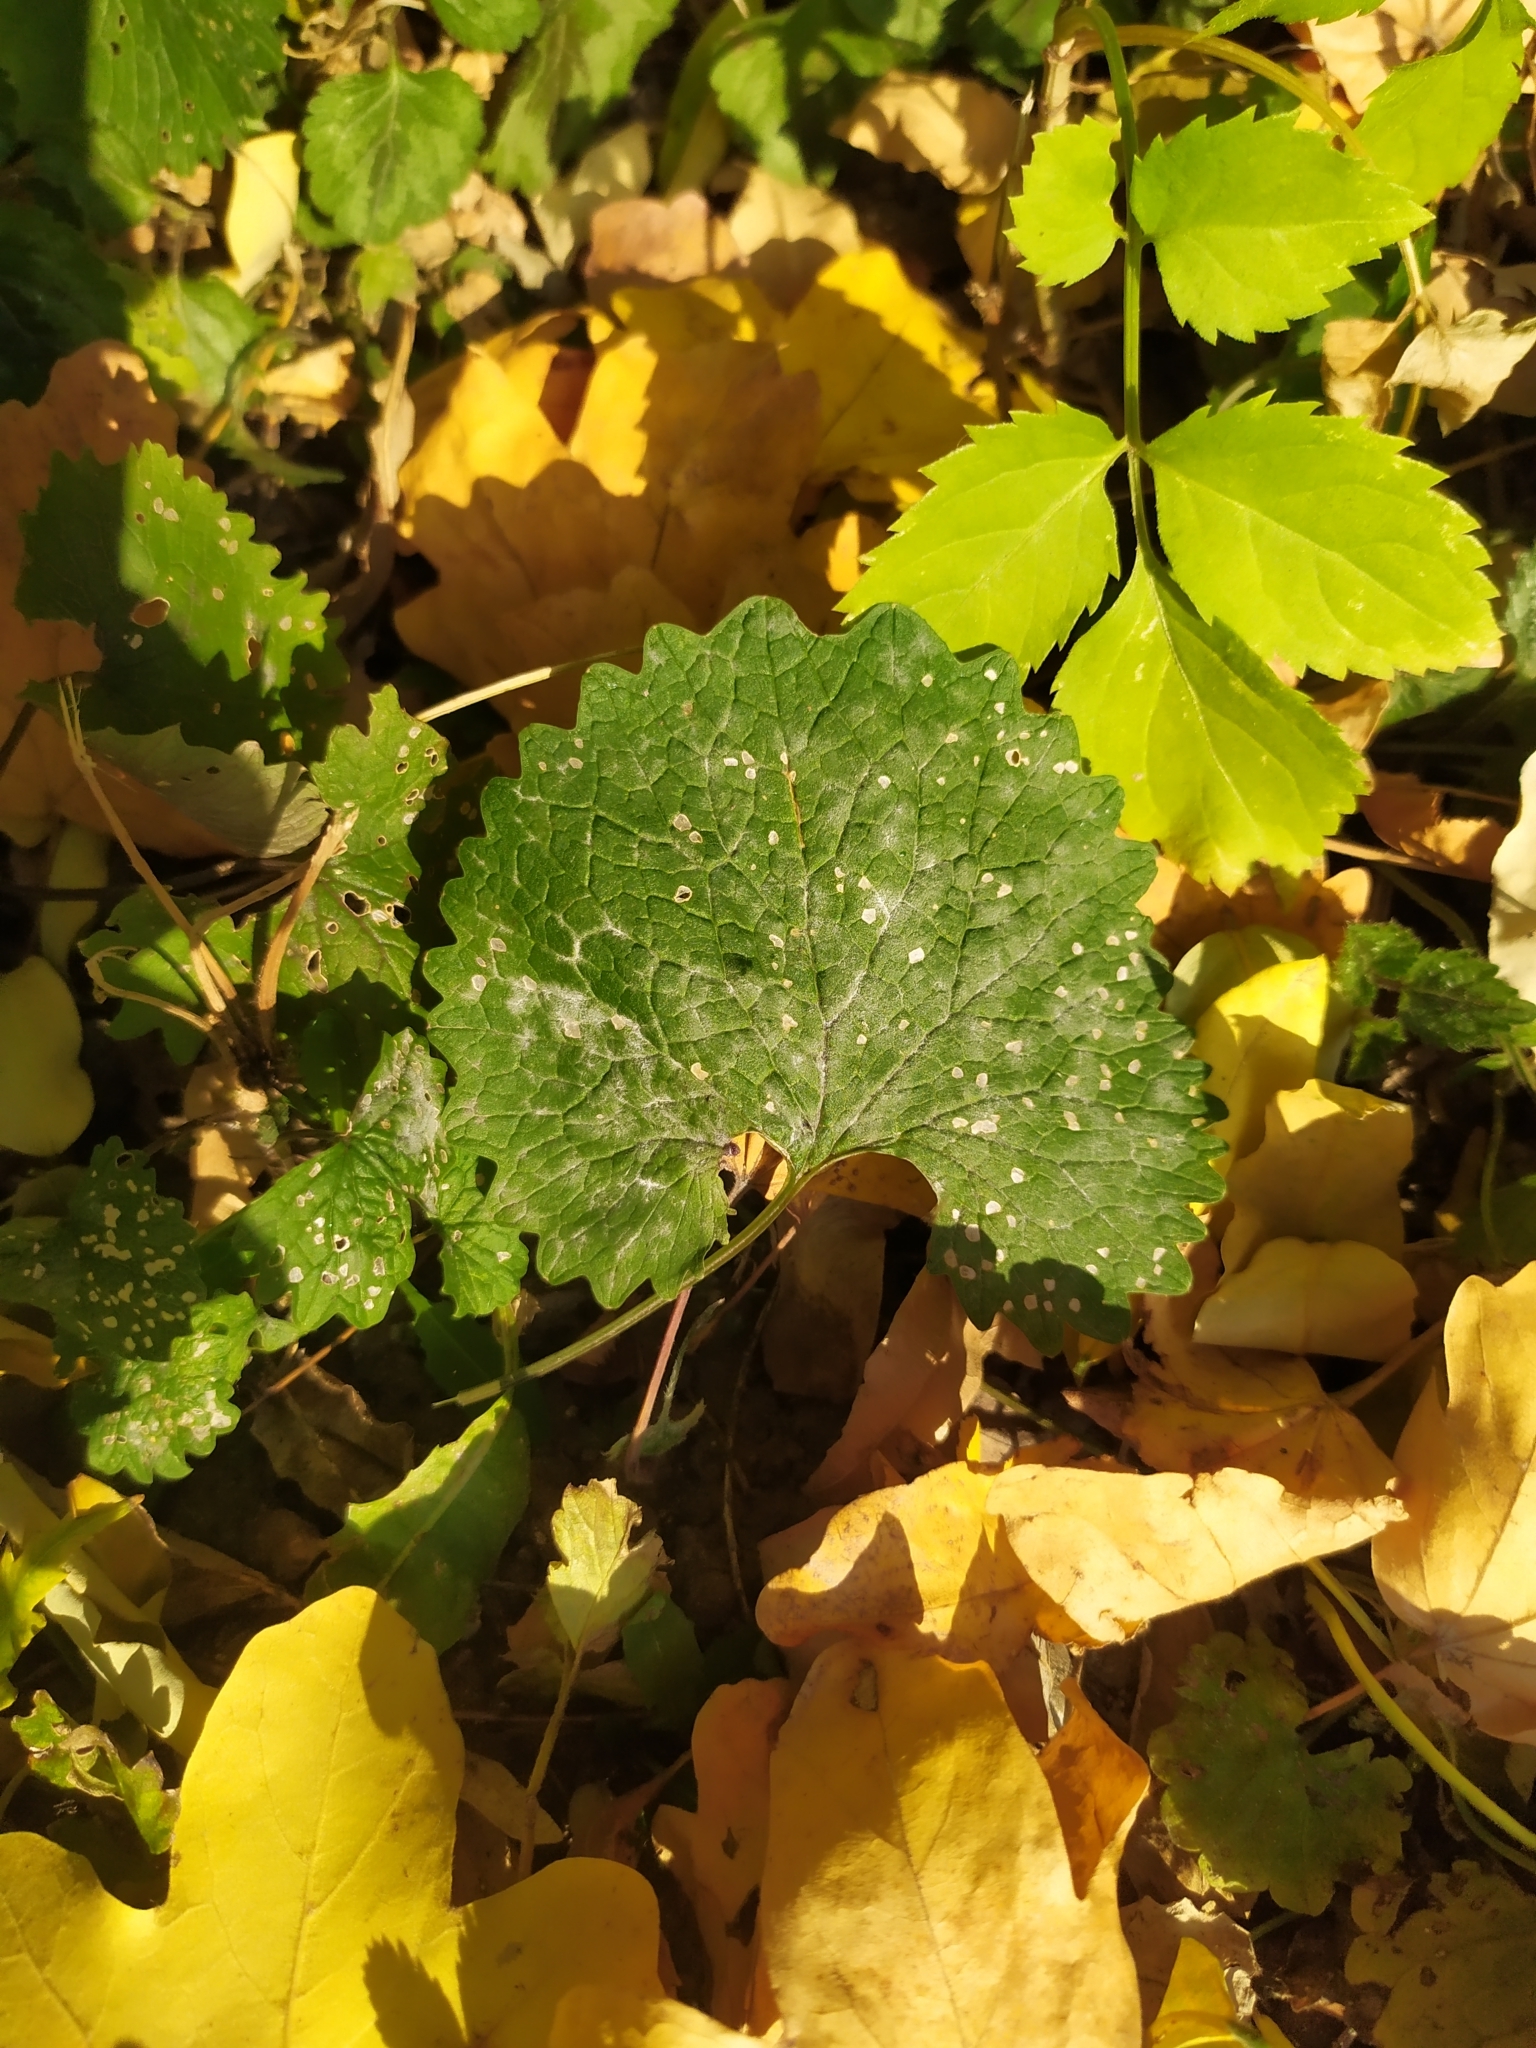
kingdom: Plantae
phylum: Tracheophyta
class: Magnoliopsida
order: Brassicales
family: Brassicaceae
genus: Alliaria
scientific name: Alliaria petiolata
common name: Garlic mustard
